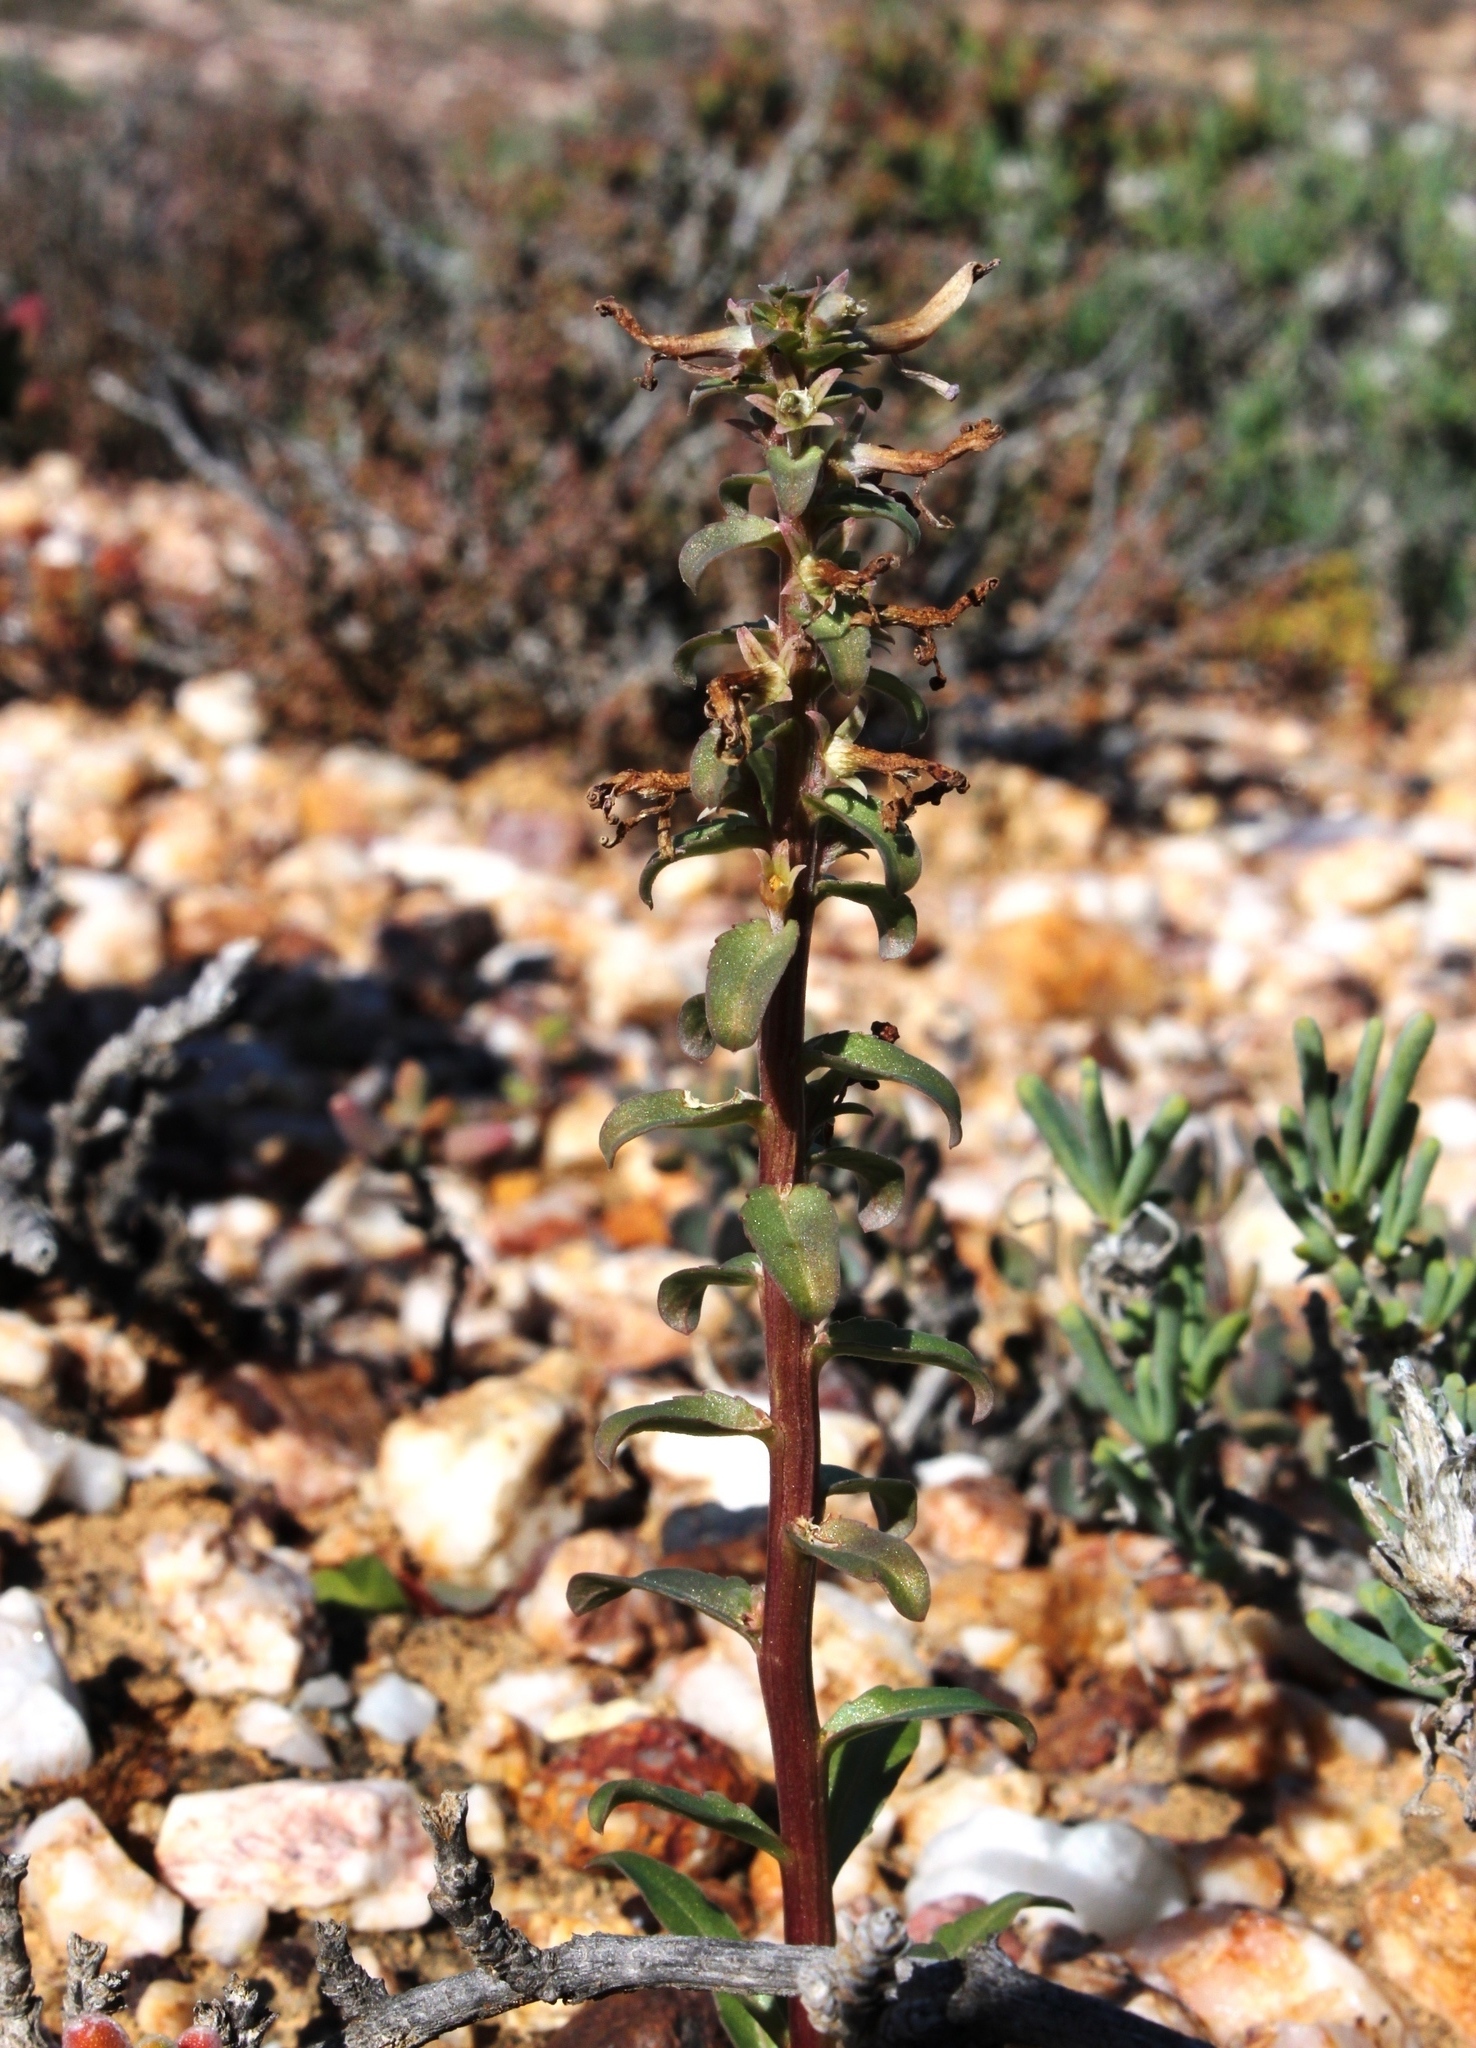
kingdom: Plantae
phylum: Tracheophyta
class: Magnoliopsida
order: Asterales
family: Campanulaceae
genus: Cyphia
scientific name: Cyphia oligotricha
